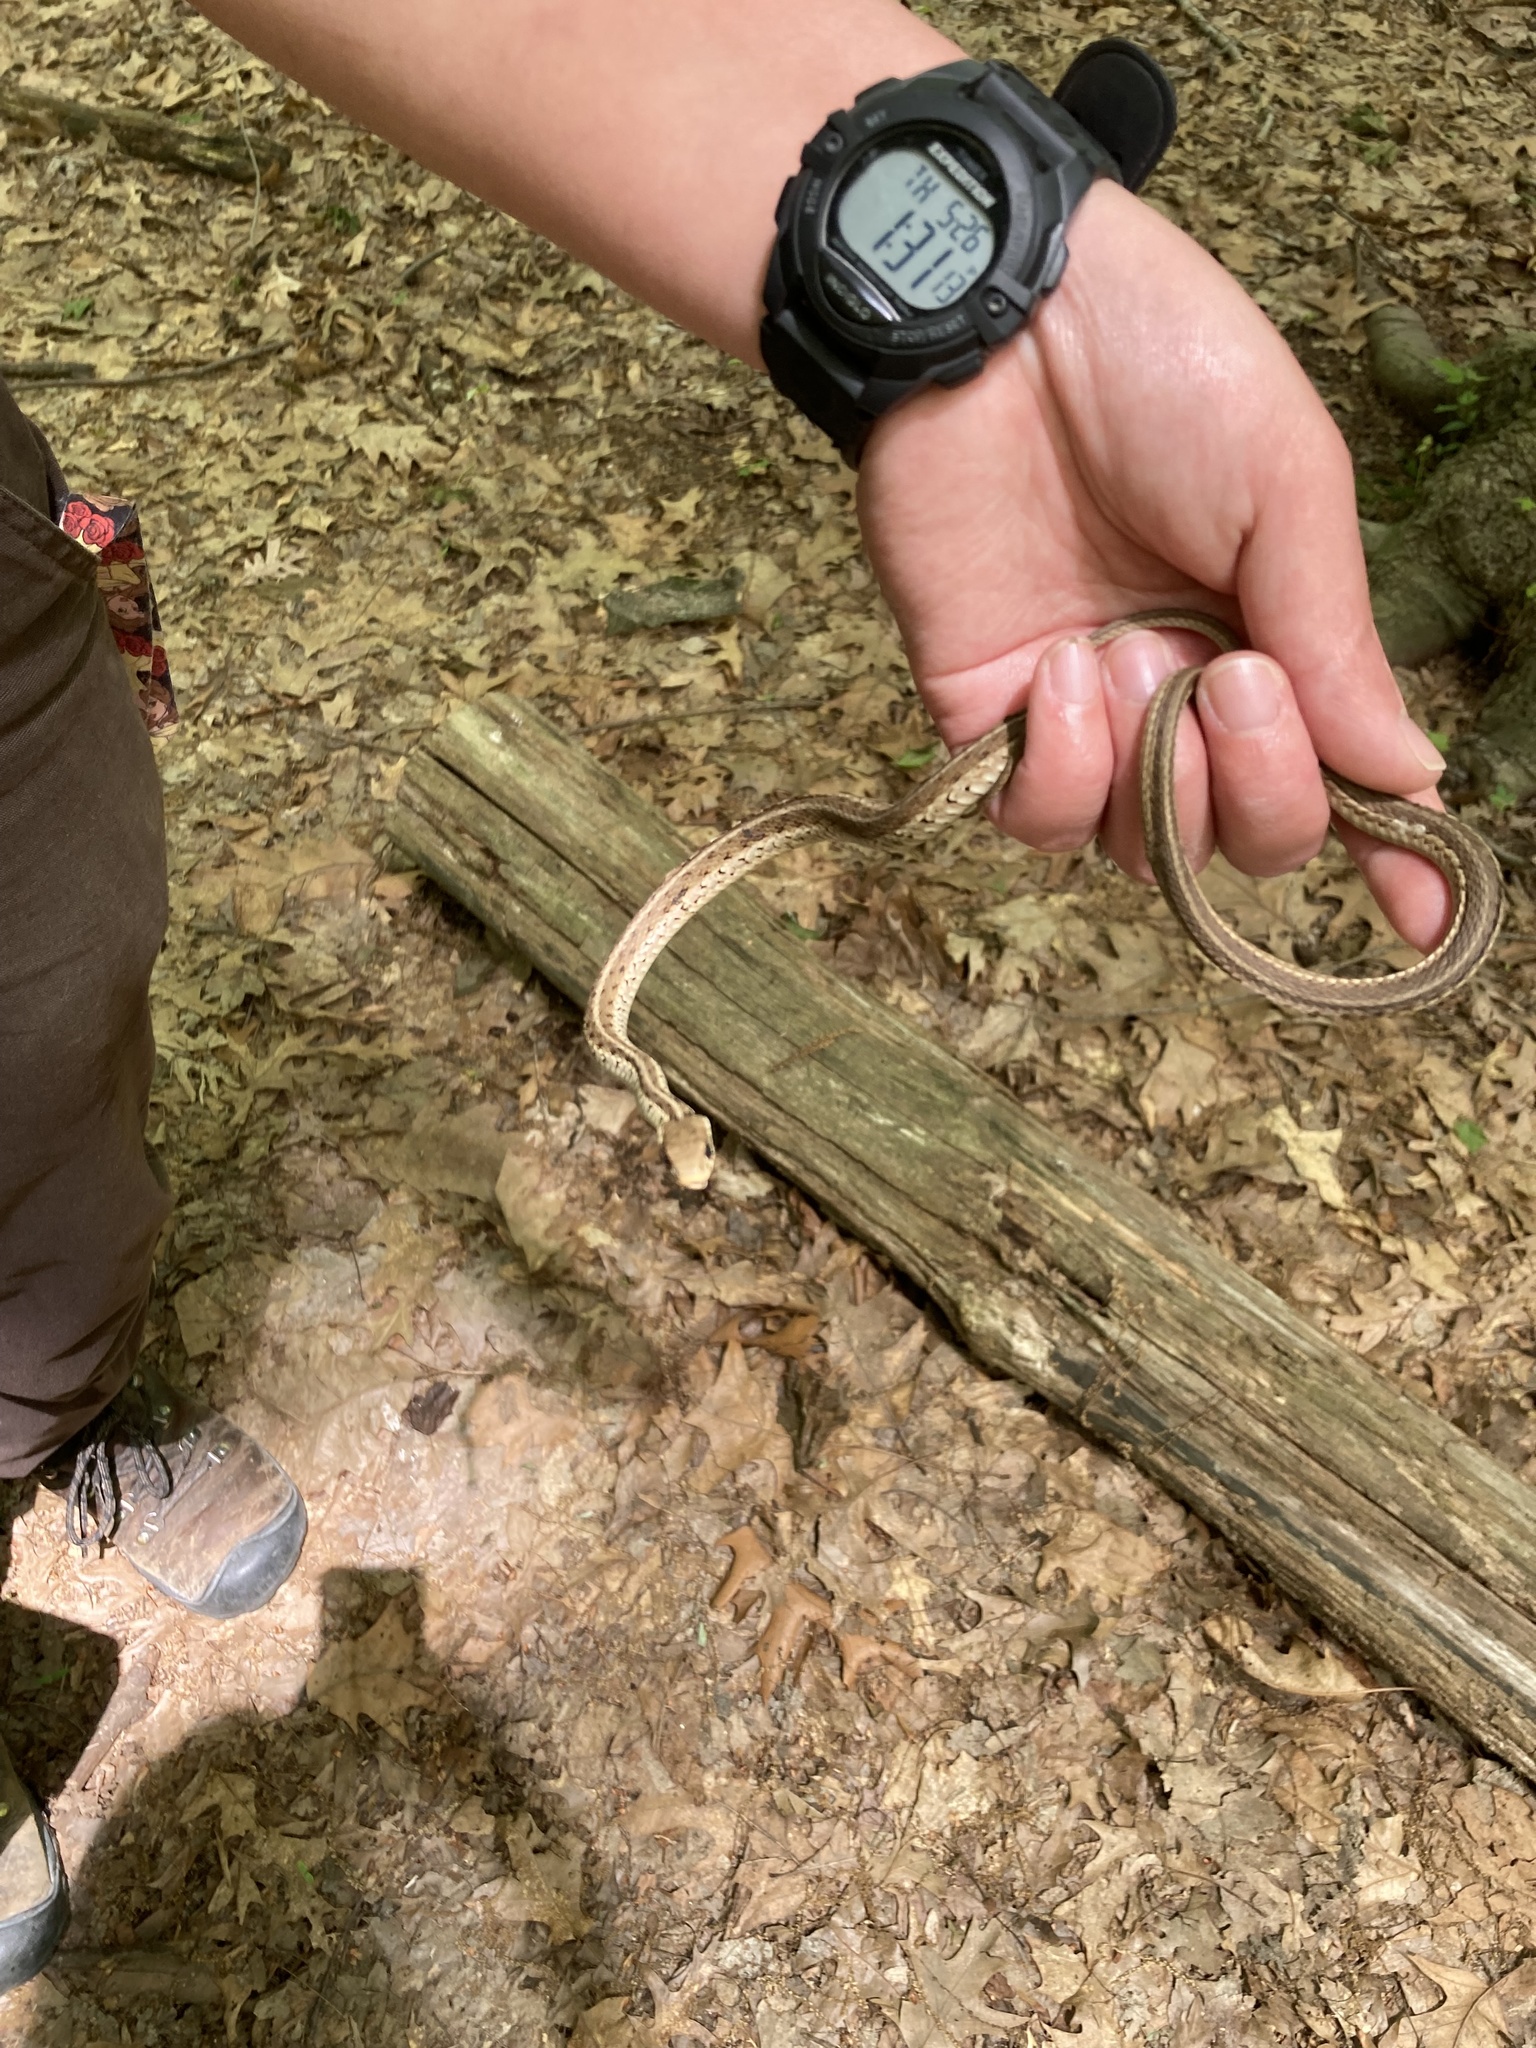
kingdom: Animalia
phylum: Chordata
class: Squamata
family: Colubridae
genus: Thamnophis
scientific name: Thamnophis sirtalis
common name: Common garter snake
